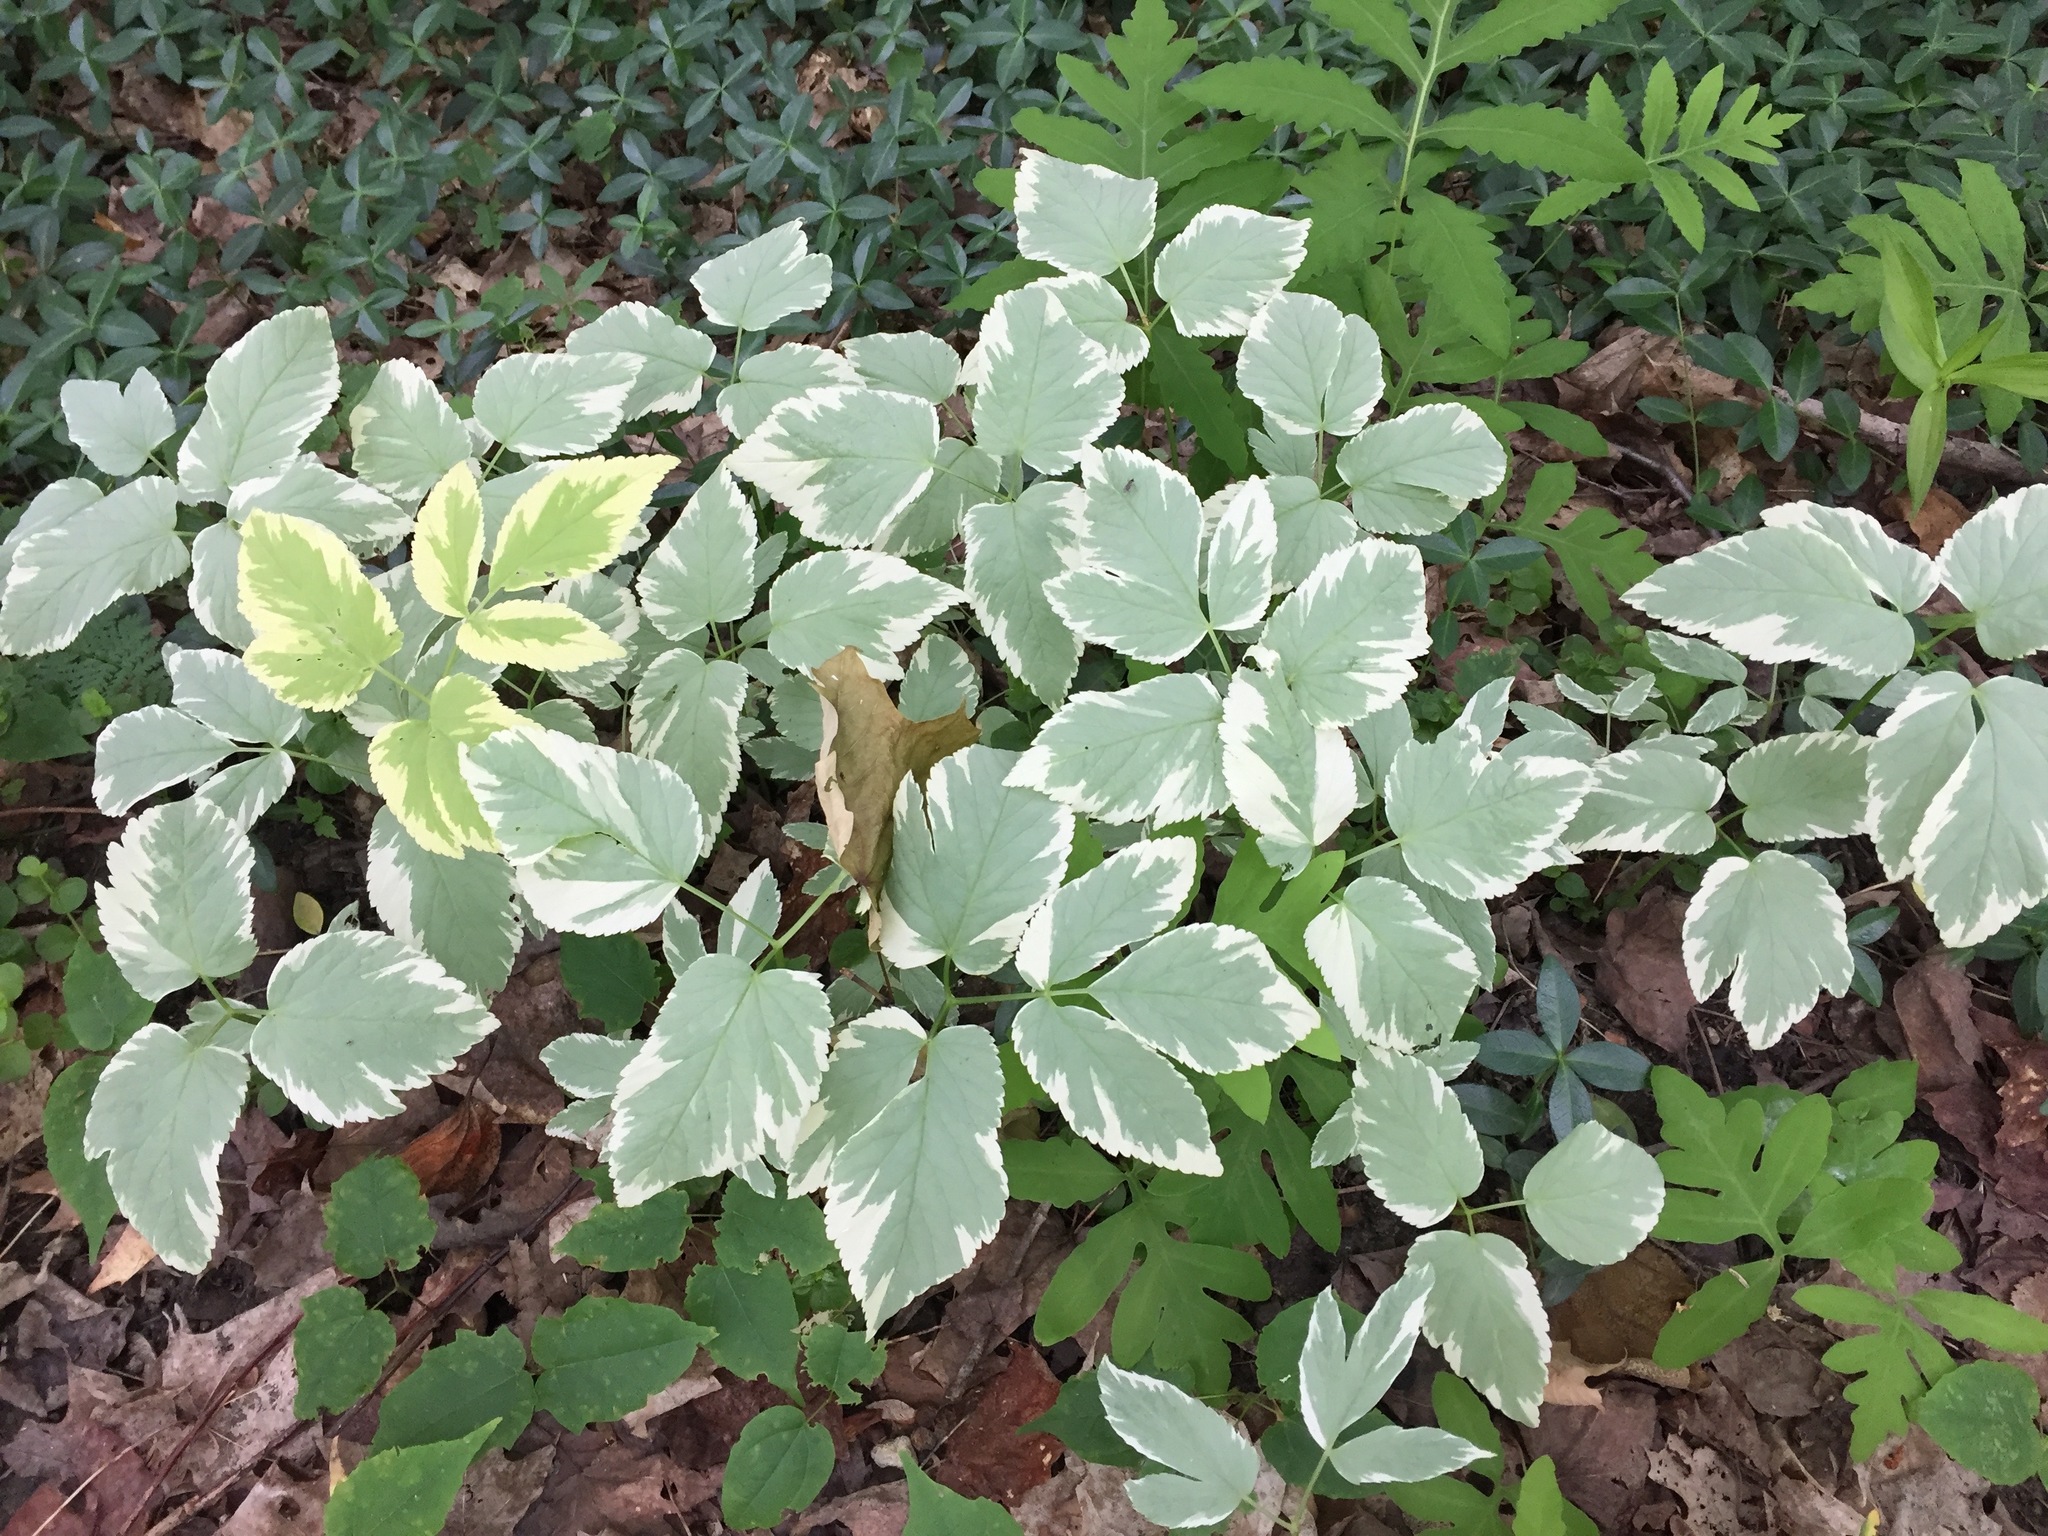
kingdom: Plantae
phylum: Tracheophyta
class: Magnoliopsida
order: Apiales
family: Apiaceae
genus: Aegopodium
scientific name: Aegopodium podagraria
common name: Ground-elder
